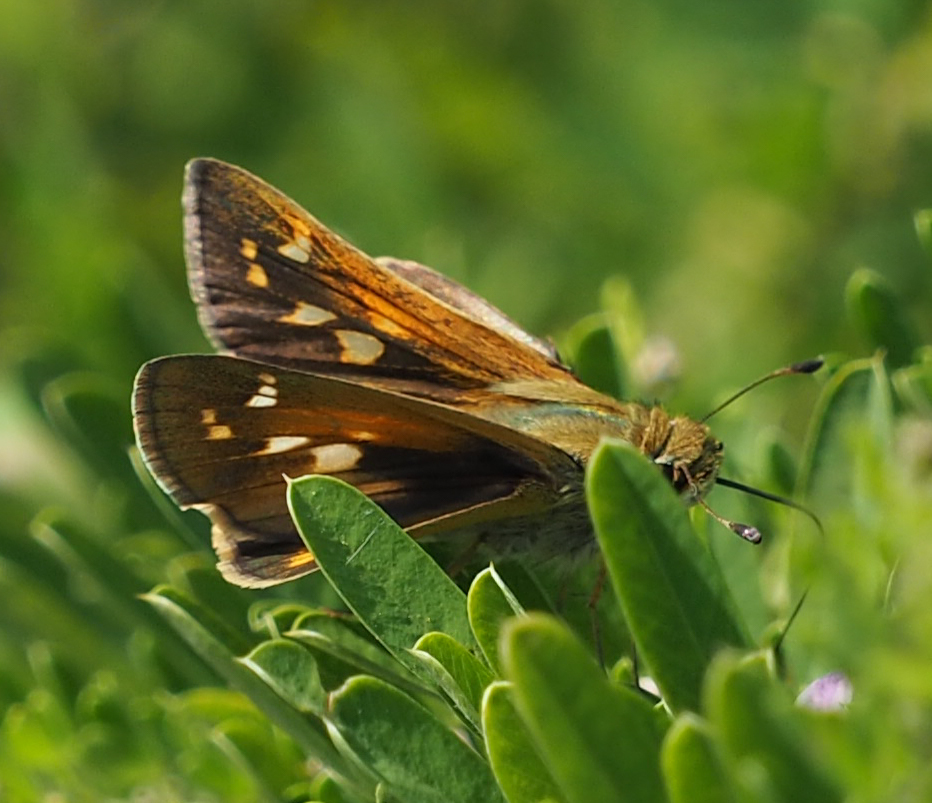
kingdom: Animalia
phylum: Arthropoda
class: Insecta
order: Lepidoptera
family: Hesperiidae
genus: Atalopedes
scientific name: Atalopedes
